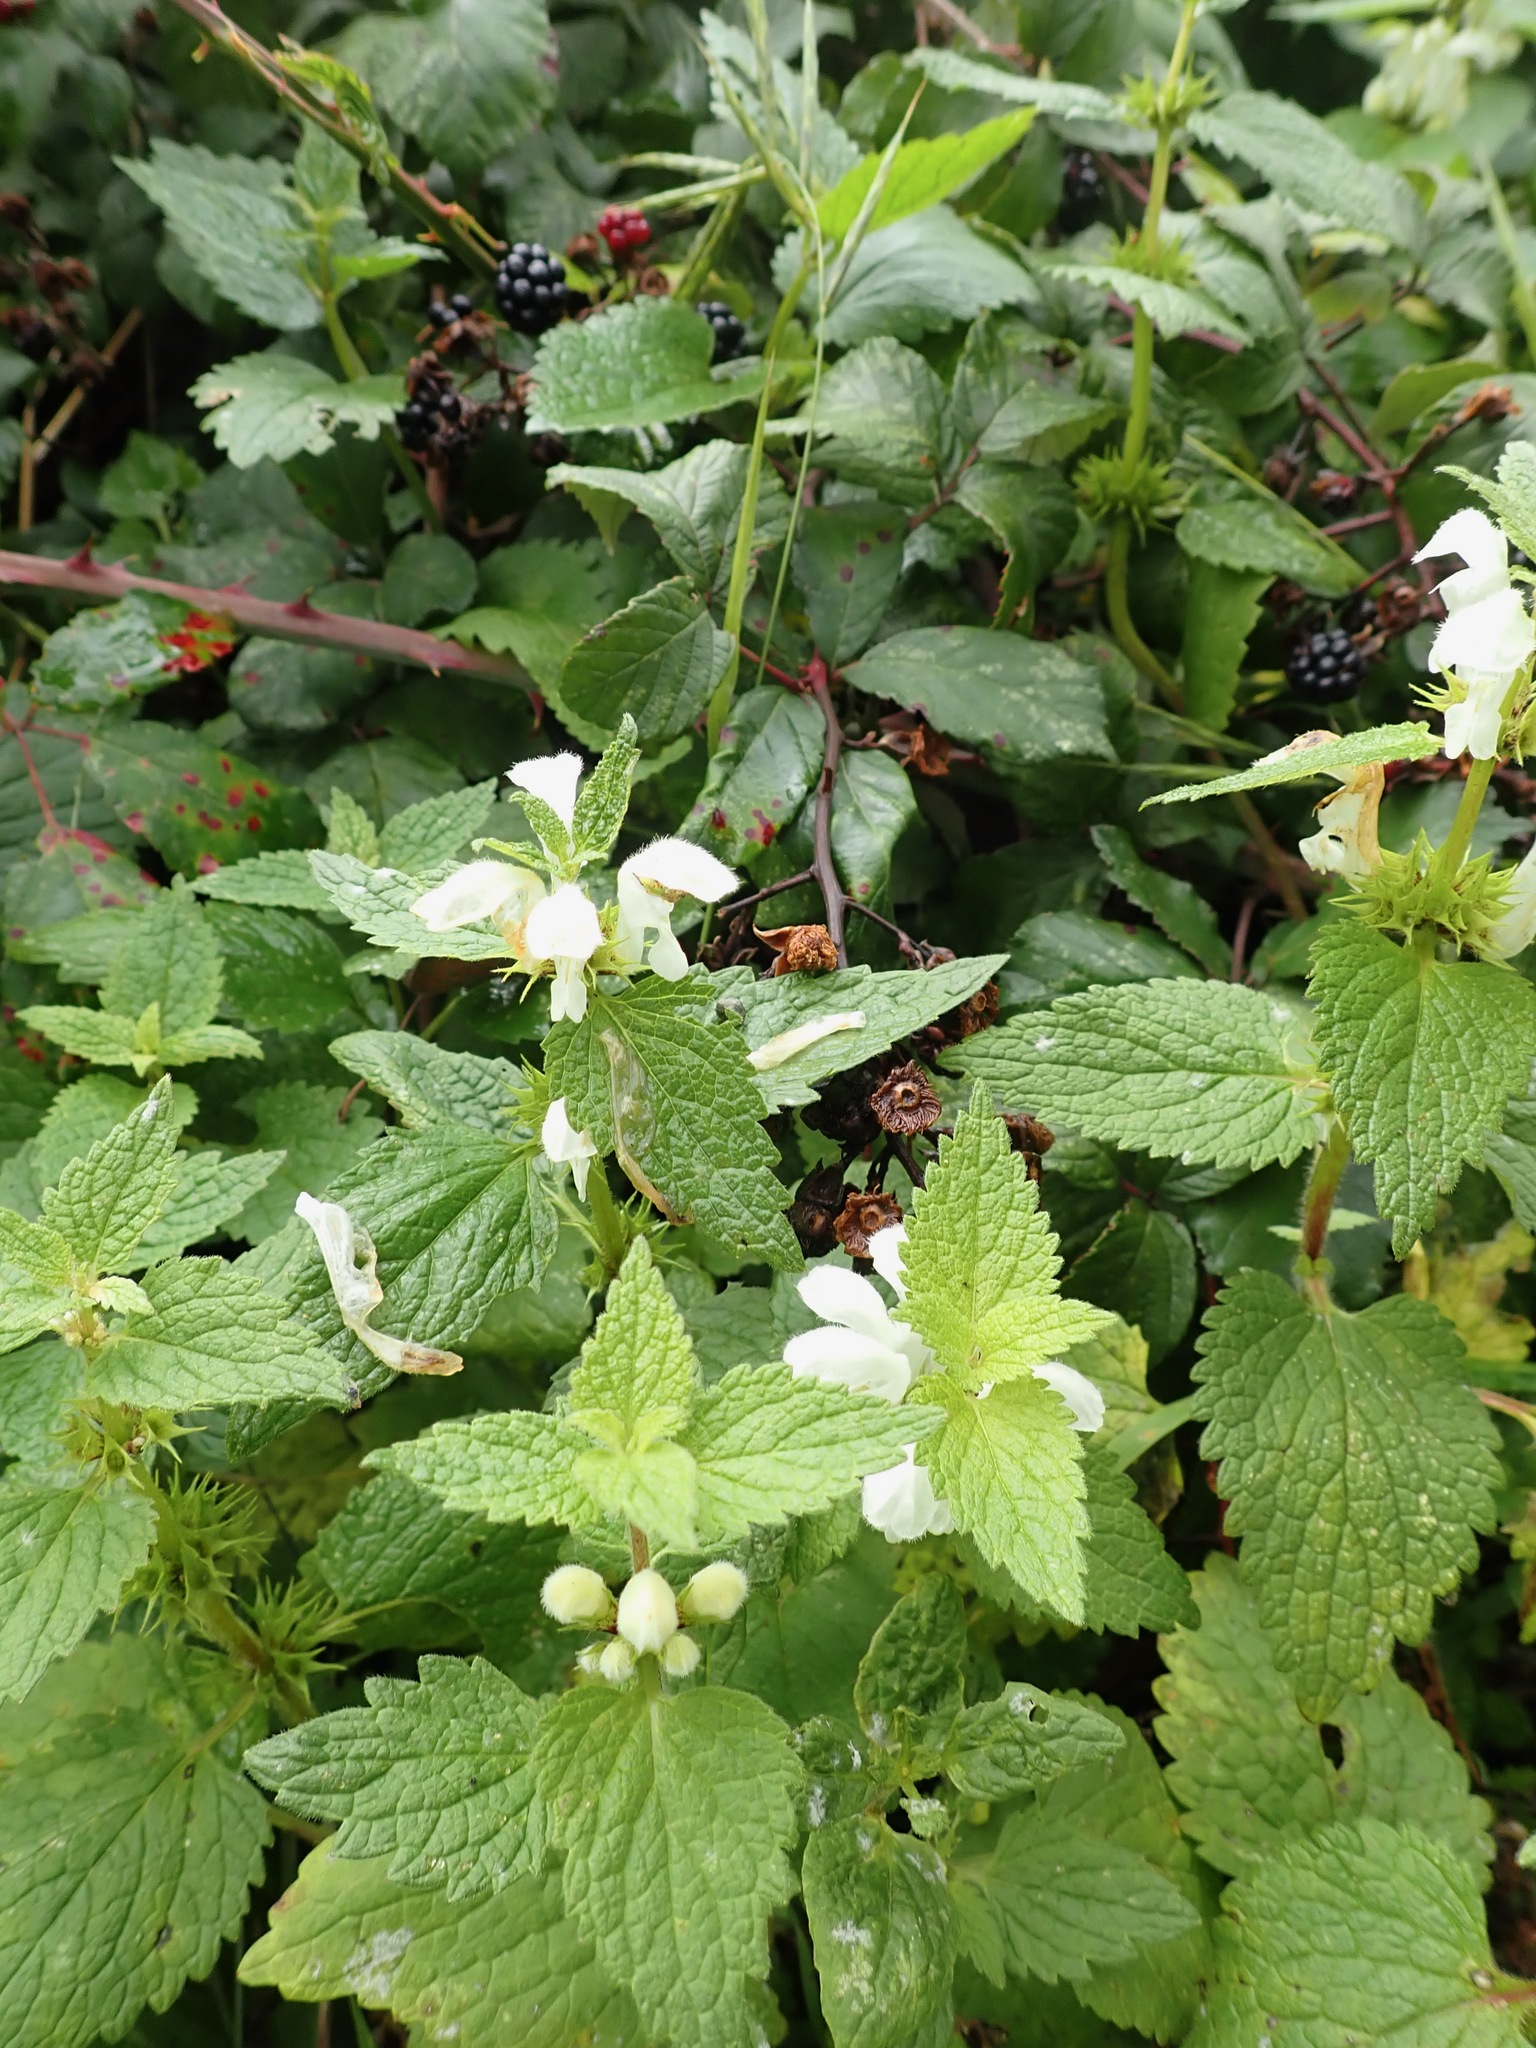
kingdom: Plantae
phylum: Tracheophyta
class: Magnoliopsida
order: Lamiales
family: Lamiaceae
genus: Lamium
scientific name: Lamium album
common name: White dead-nettle
